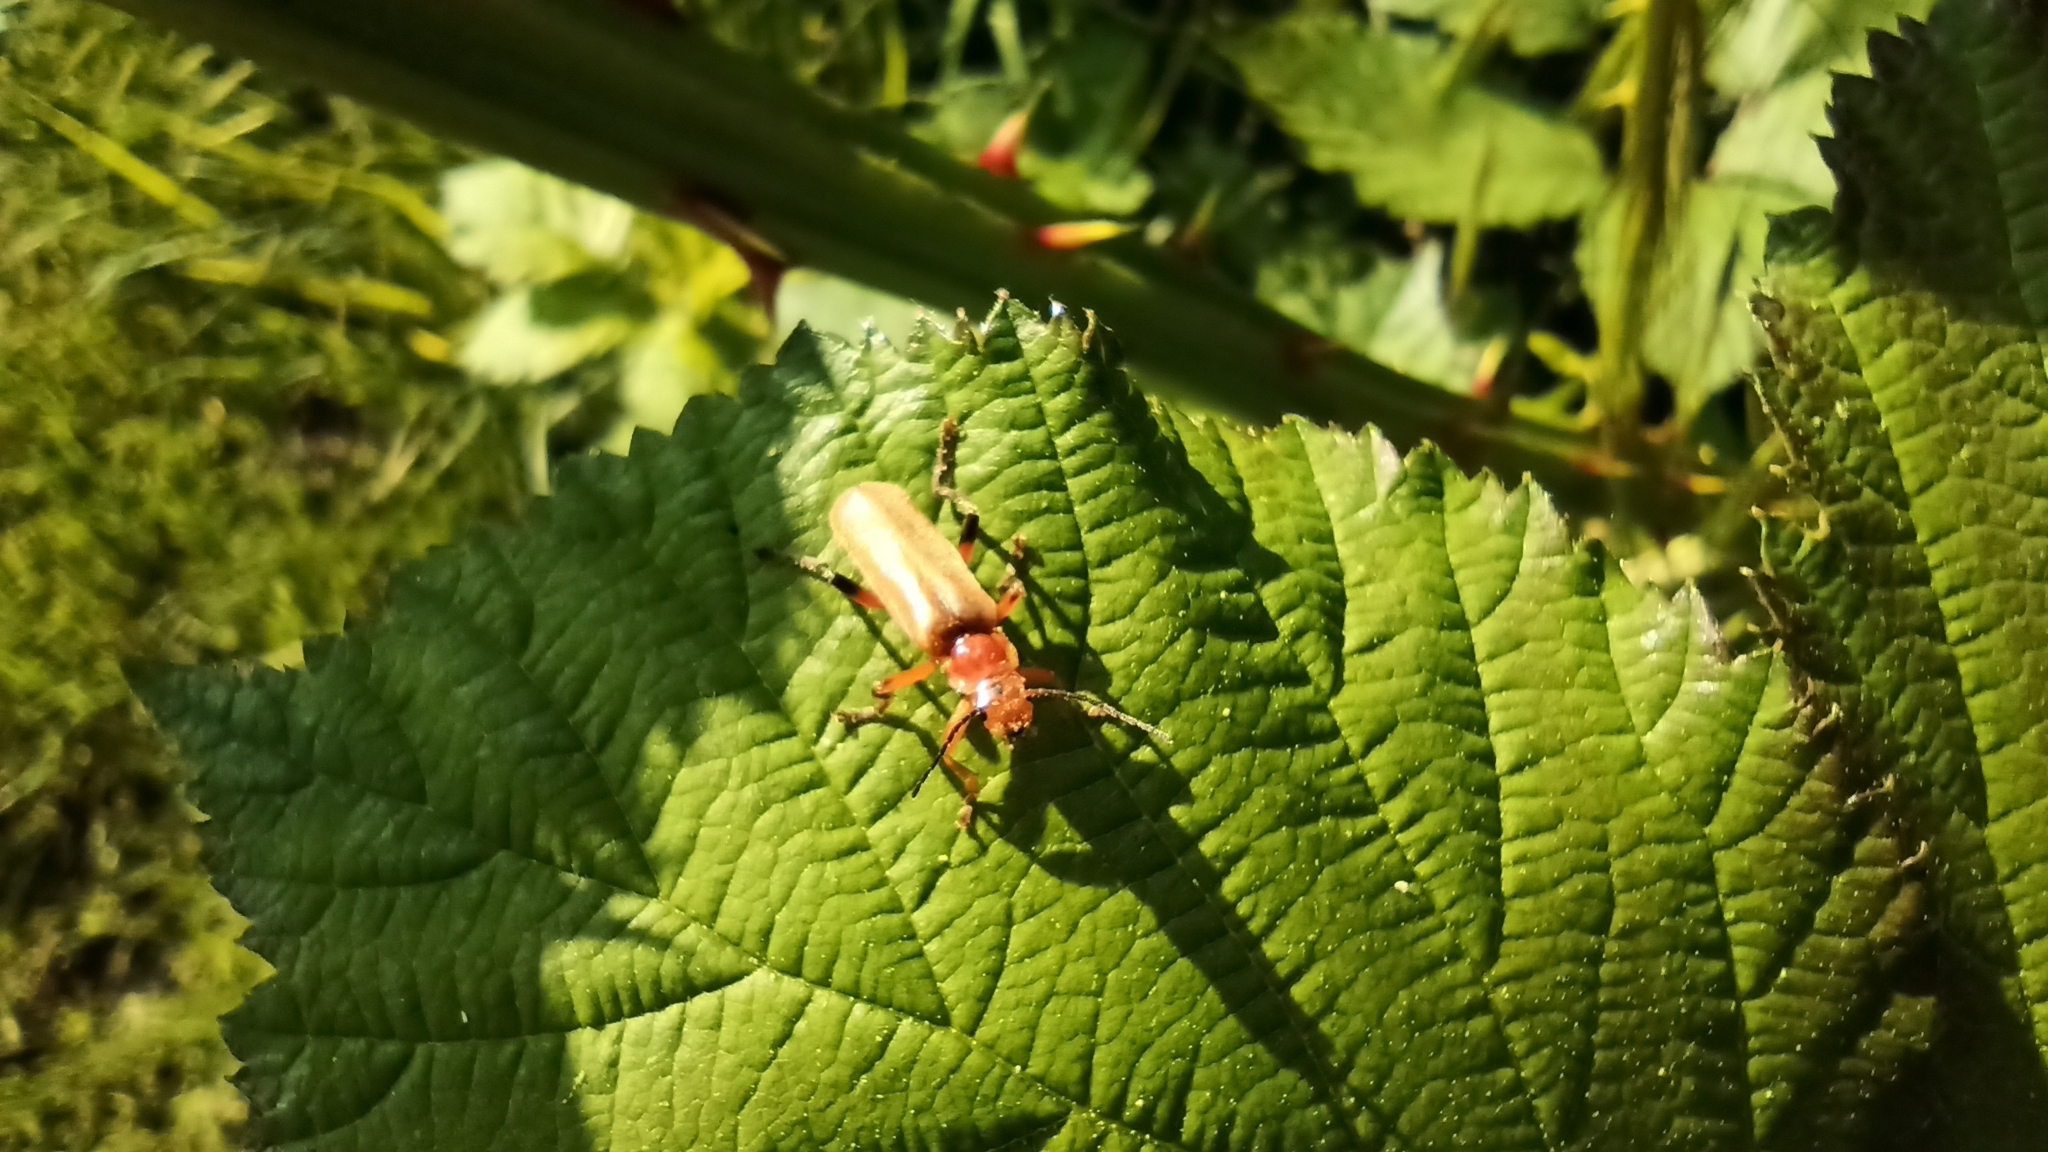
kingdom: Animalia
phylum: Arthropoda
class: Insecta
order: Coleoptera
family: Cantharidae
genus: Cantharis
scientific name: Cantharis livida
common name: Livid soldier beetle
